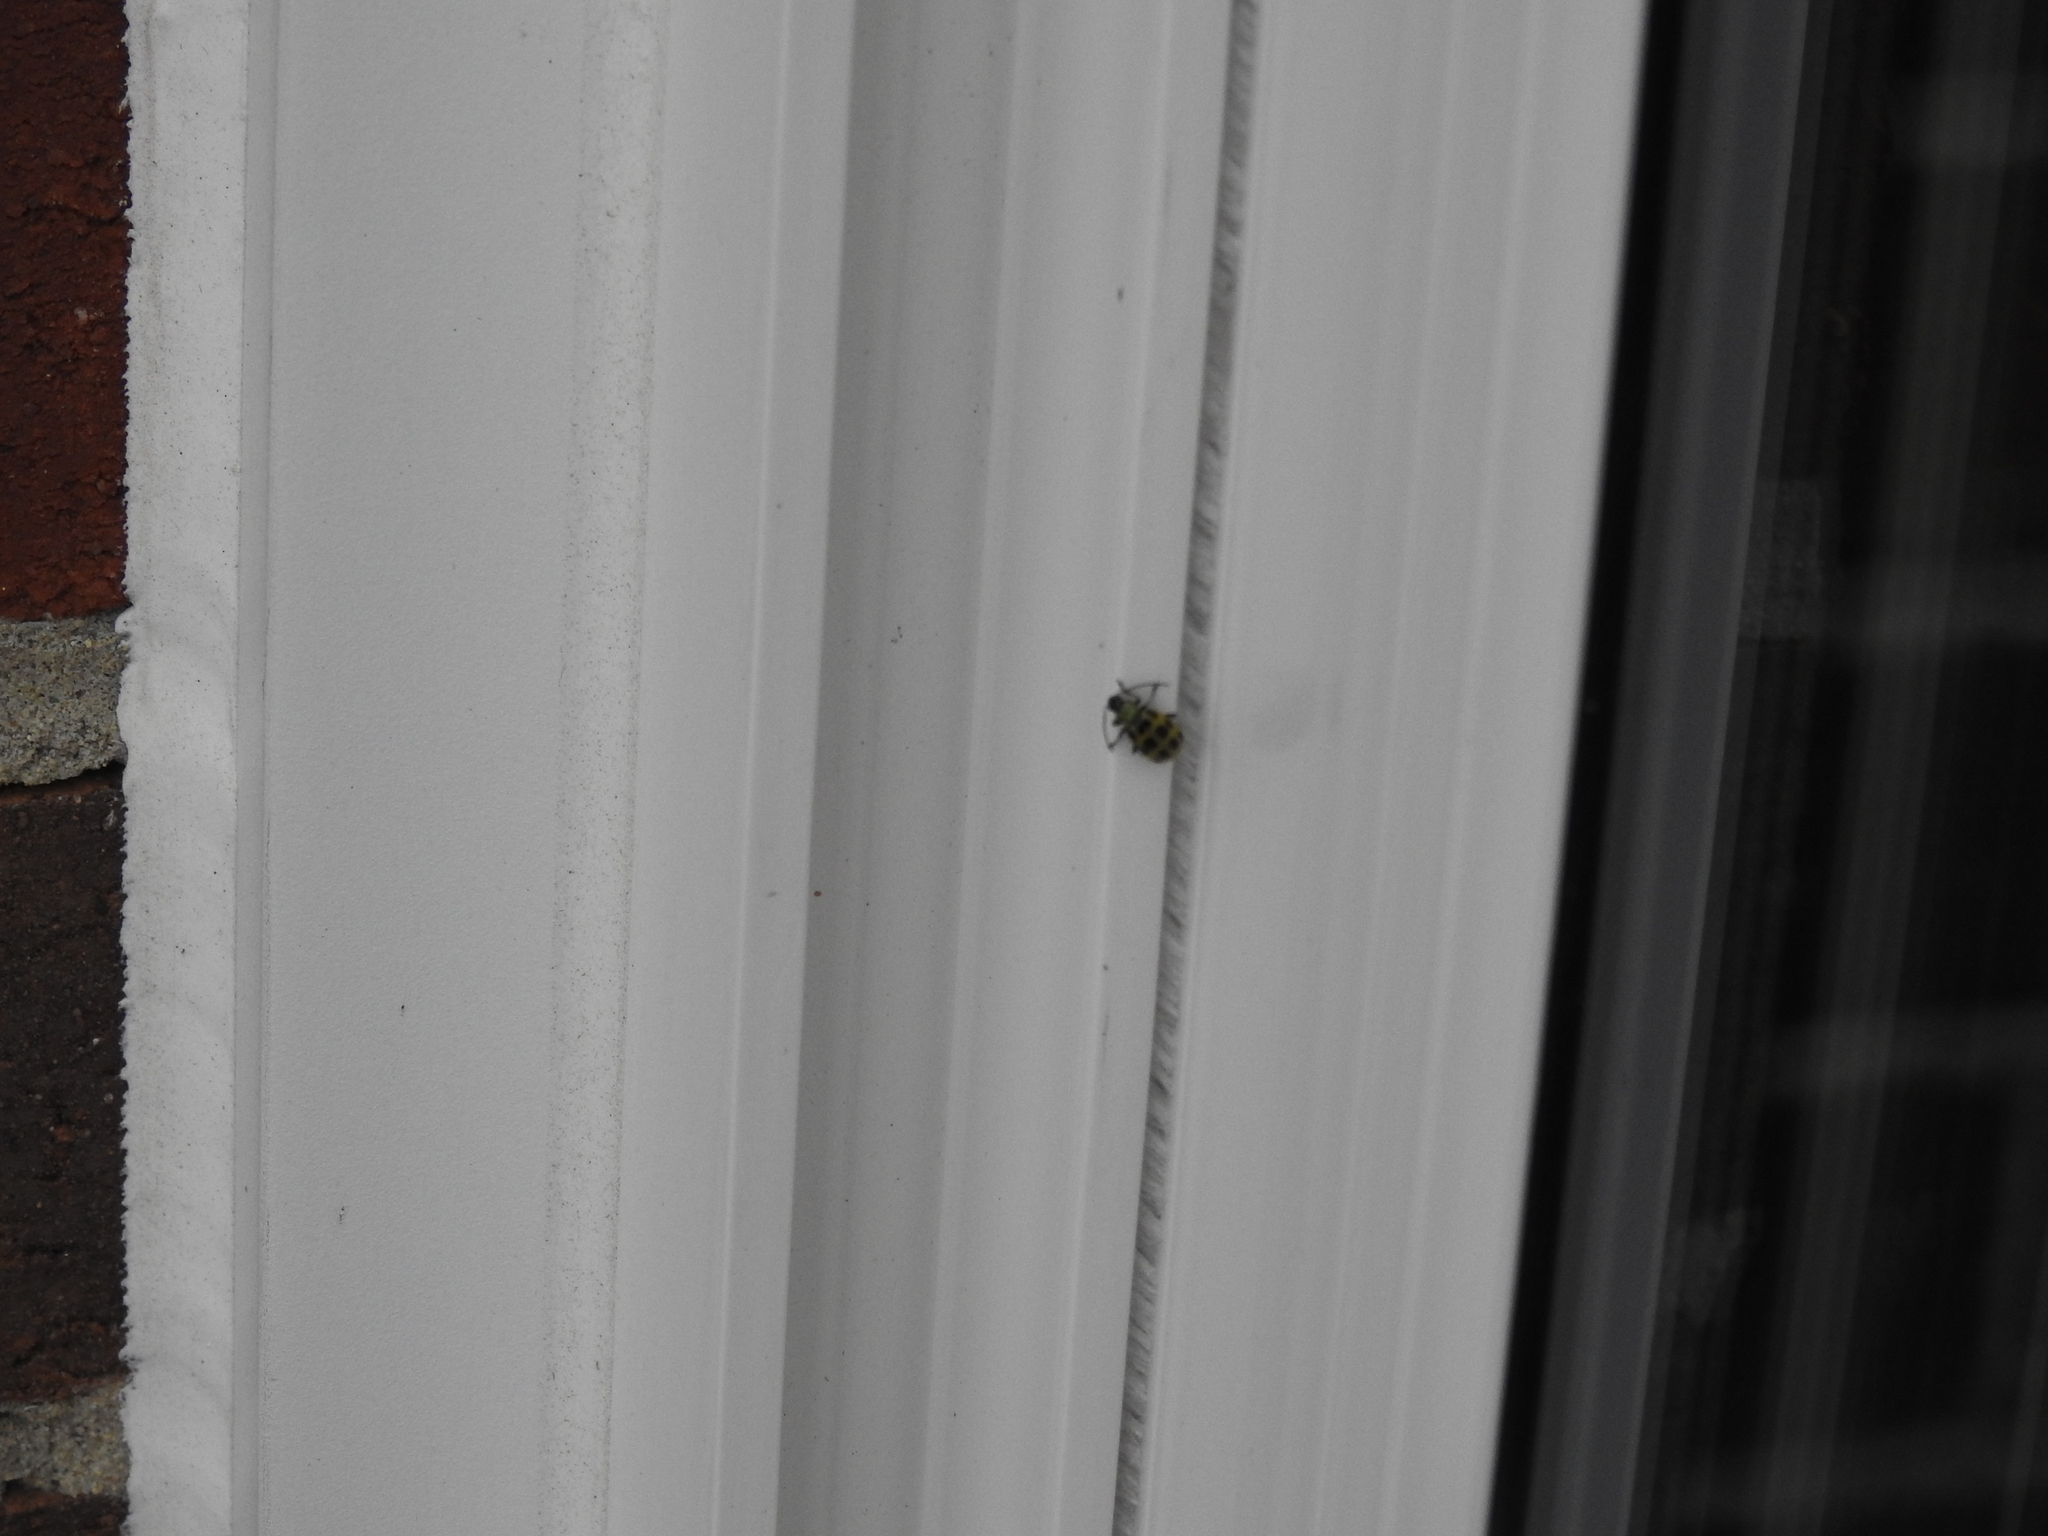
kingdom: Animalia
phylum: Arthropoda
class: Insecta
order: Coleoptera
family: Chrysomelidae
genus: Diabrotica
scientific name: Diabrotica undecimpunctata
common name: Spotted cucumber beetle
